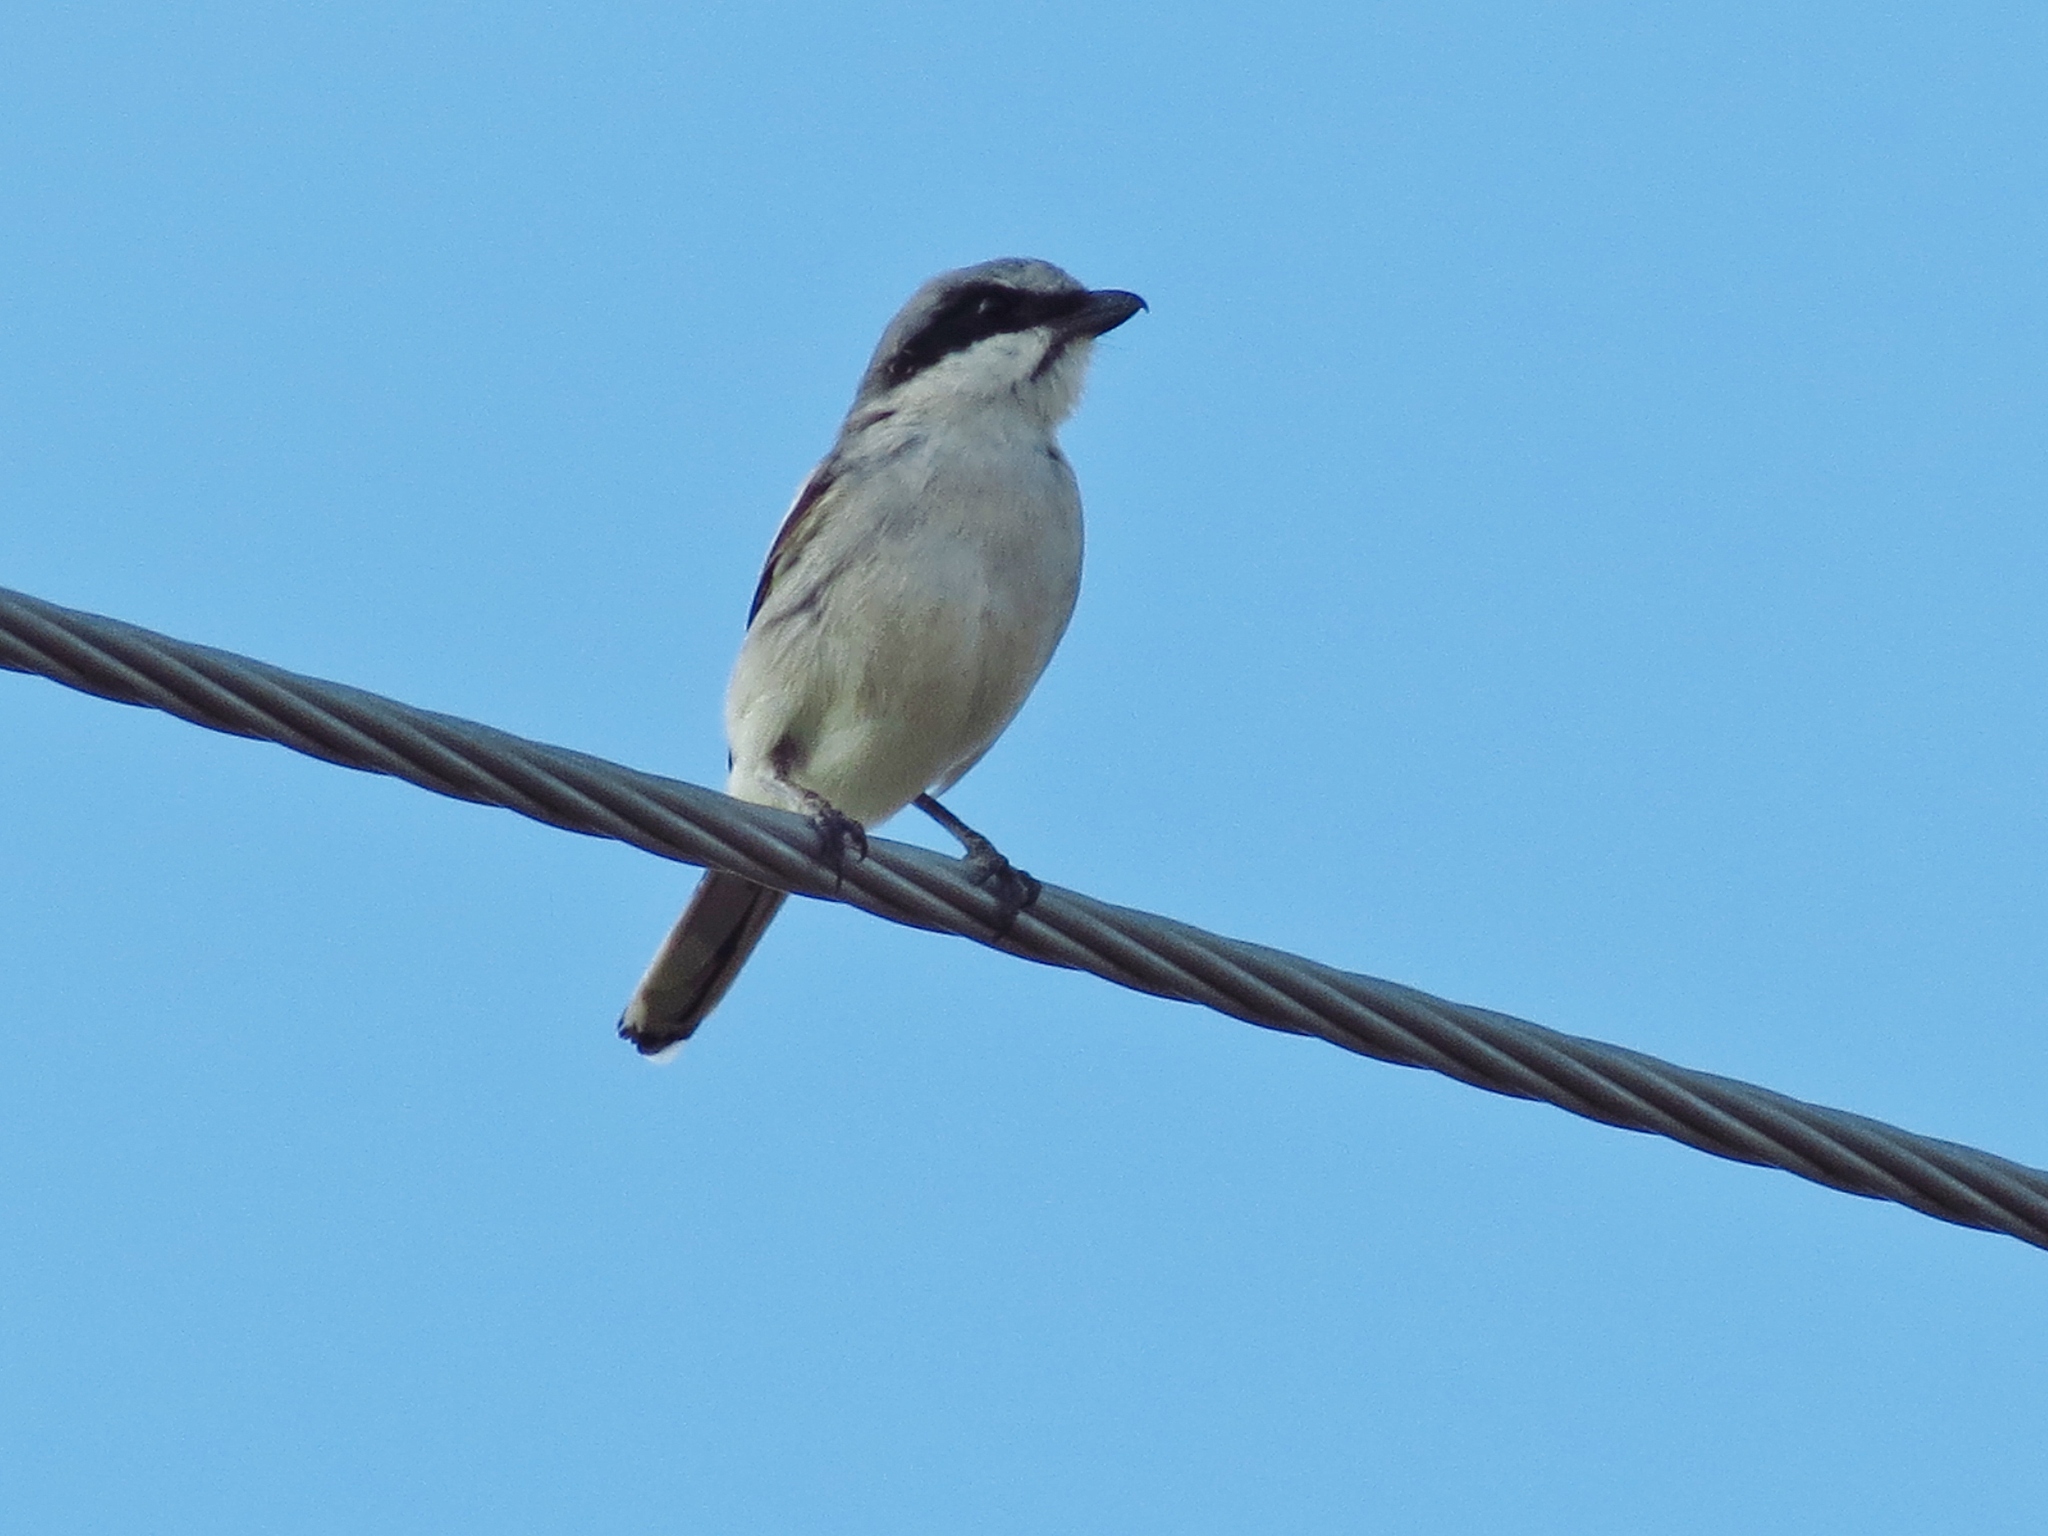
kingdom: Animalia
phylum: Chordata
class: Aves
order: Passeriformes
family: Laniidae
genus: Lanius
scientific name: Lanius ludovicianus
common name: Loggerhead shrike
